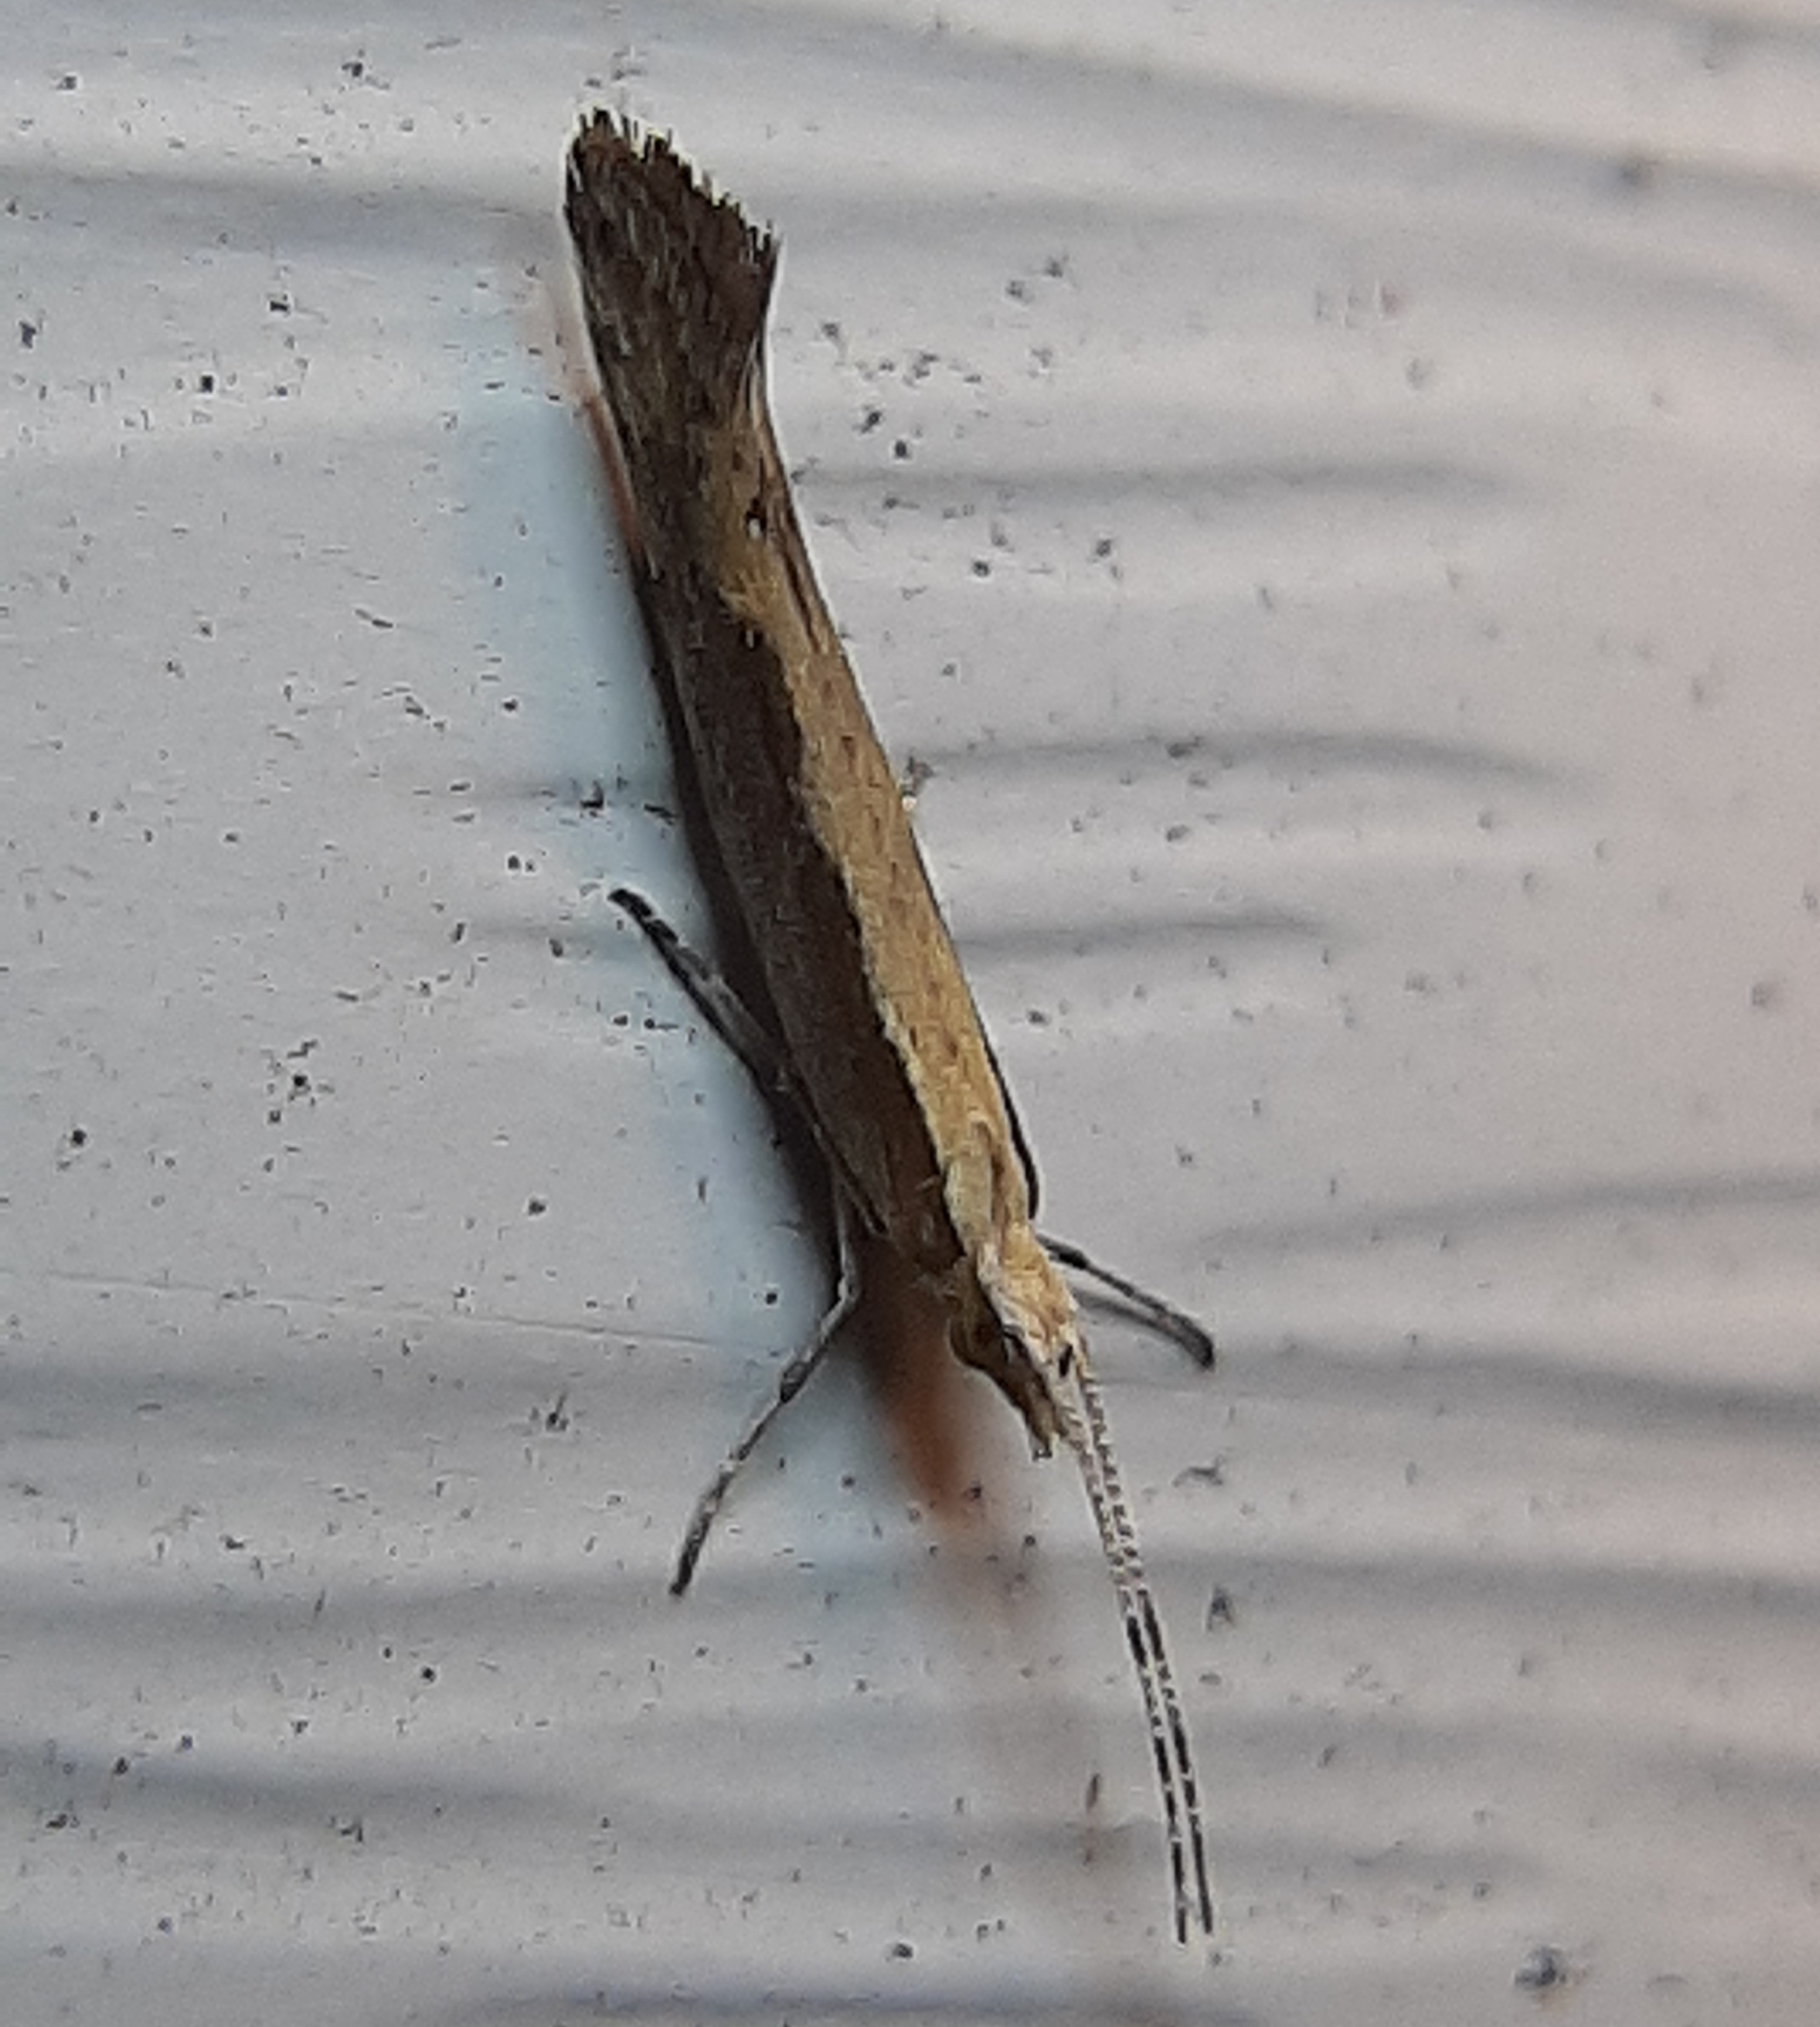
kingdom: Animalia
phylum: Arthropoda
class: Insecta
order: Lepidoptera
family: Plutellidae
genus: Plutella
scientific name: Plutella xylostella
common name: Diamond-back moth
